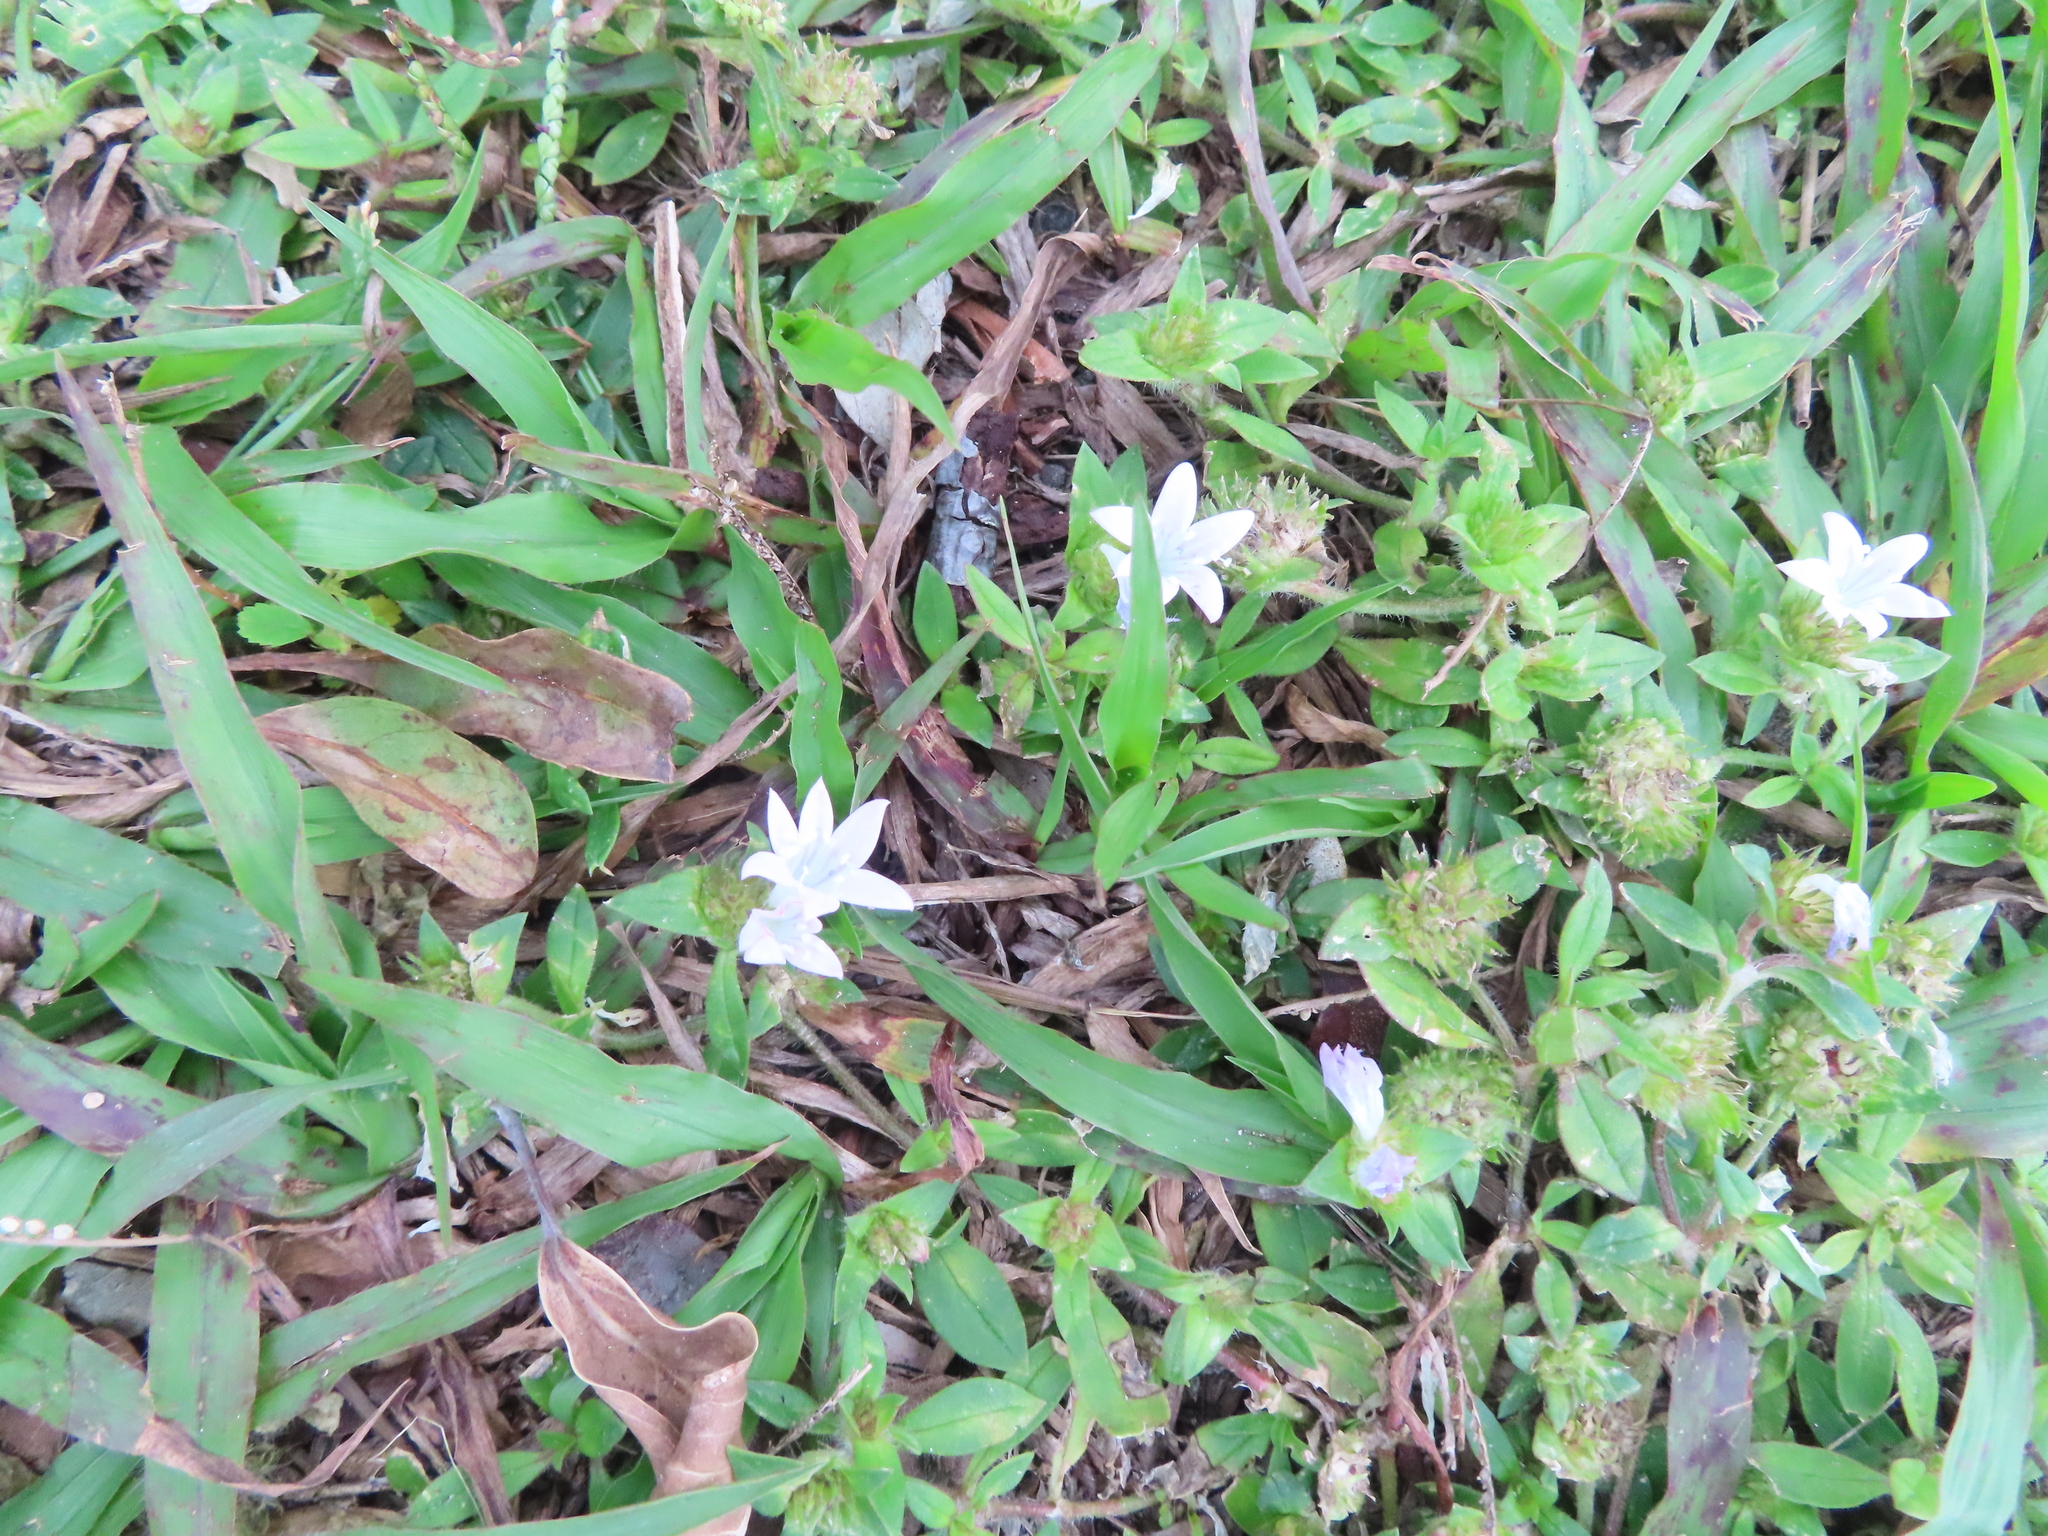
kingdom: Plantae
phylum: Tracheophyta
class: Magnoliopsida
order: Gentianales
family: Rubiaceae
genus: Richardia
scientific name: Richardia grandiflora
